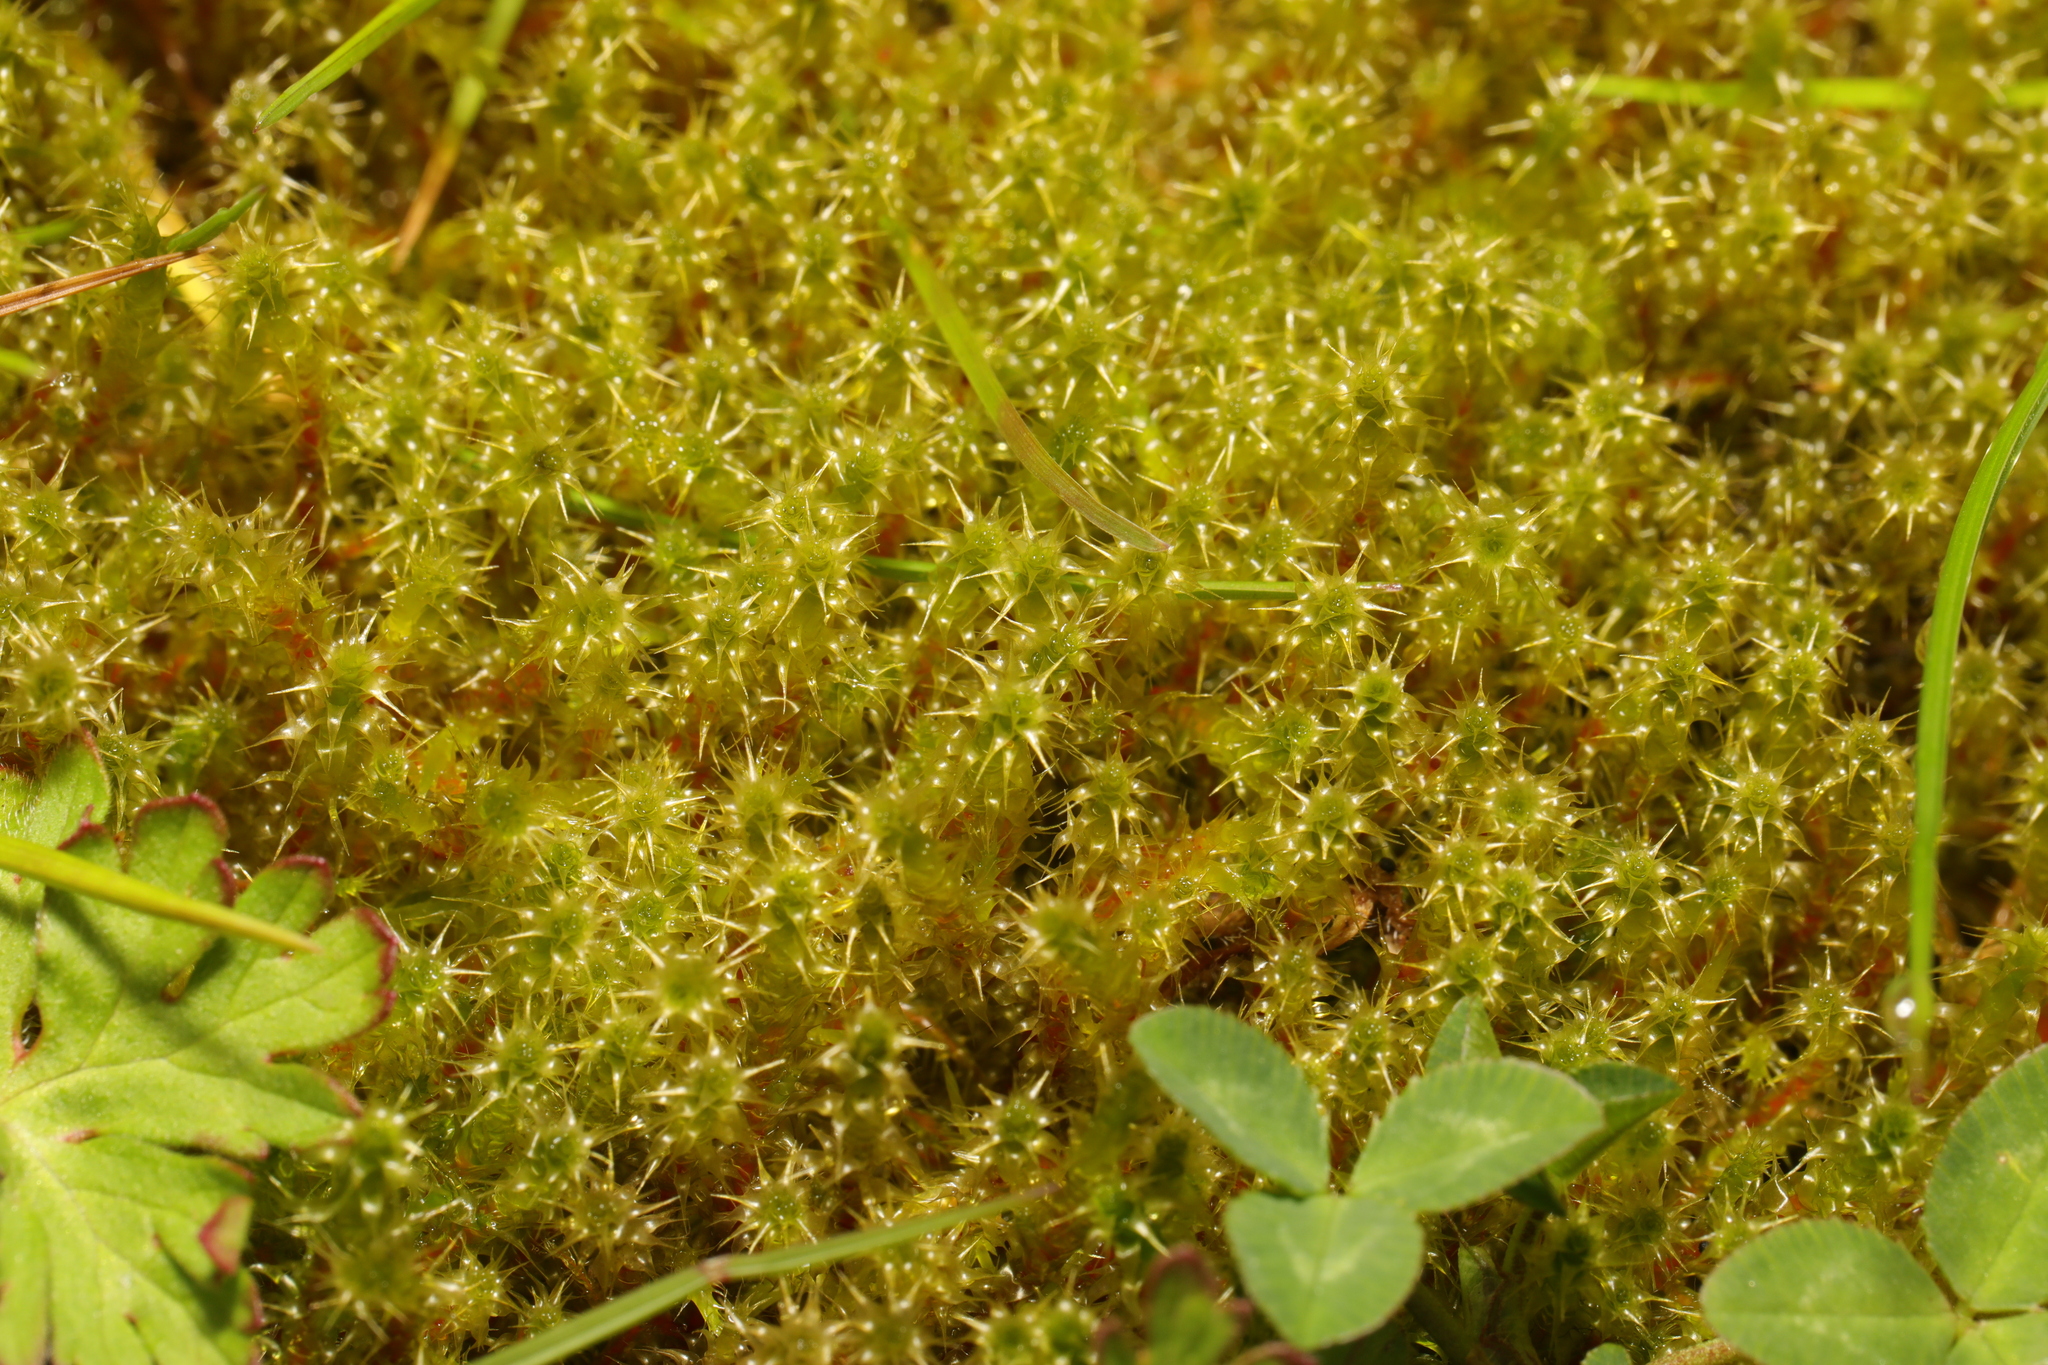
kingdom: Plantae
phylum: Bryophyta
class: Bryopsida
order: Hypnales
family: Hylocomiaceae
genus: Rhytidiadelphus
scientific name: Rhytidiadelphus squarrosus
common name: Springy turf-moss
